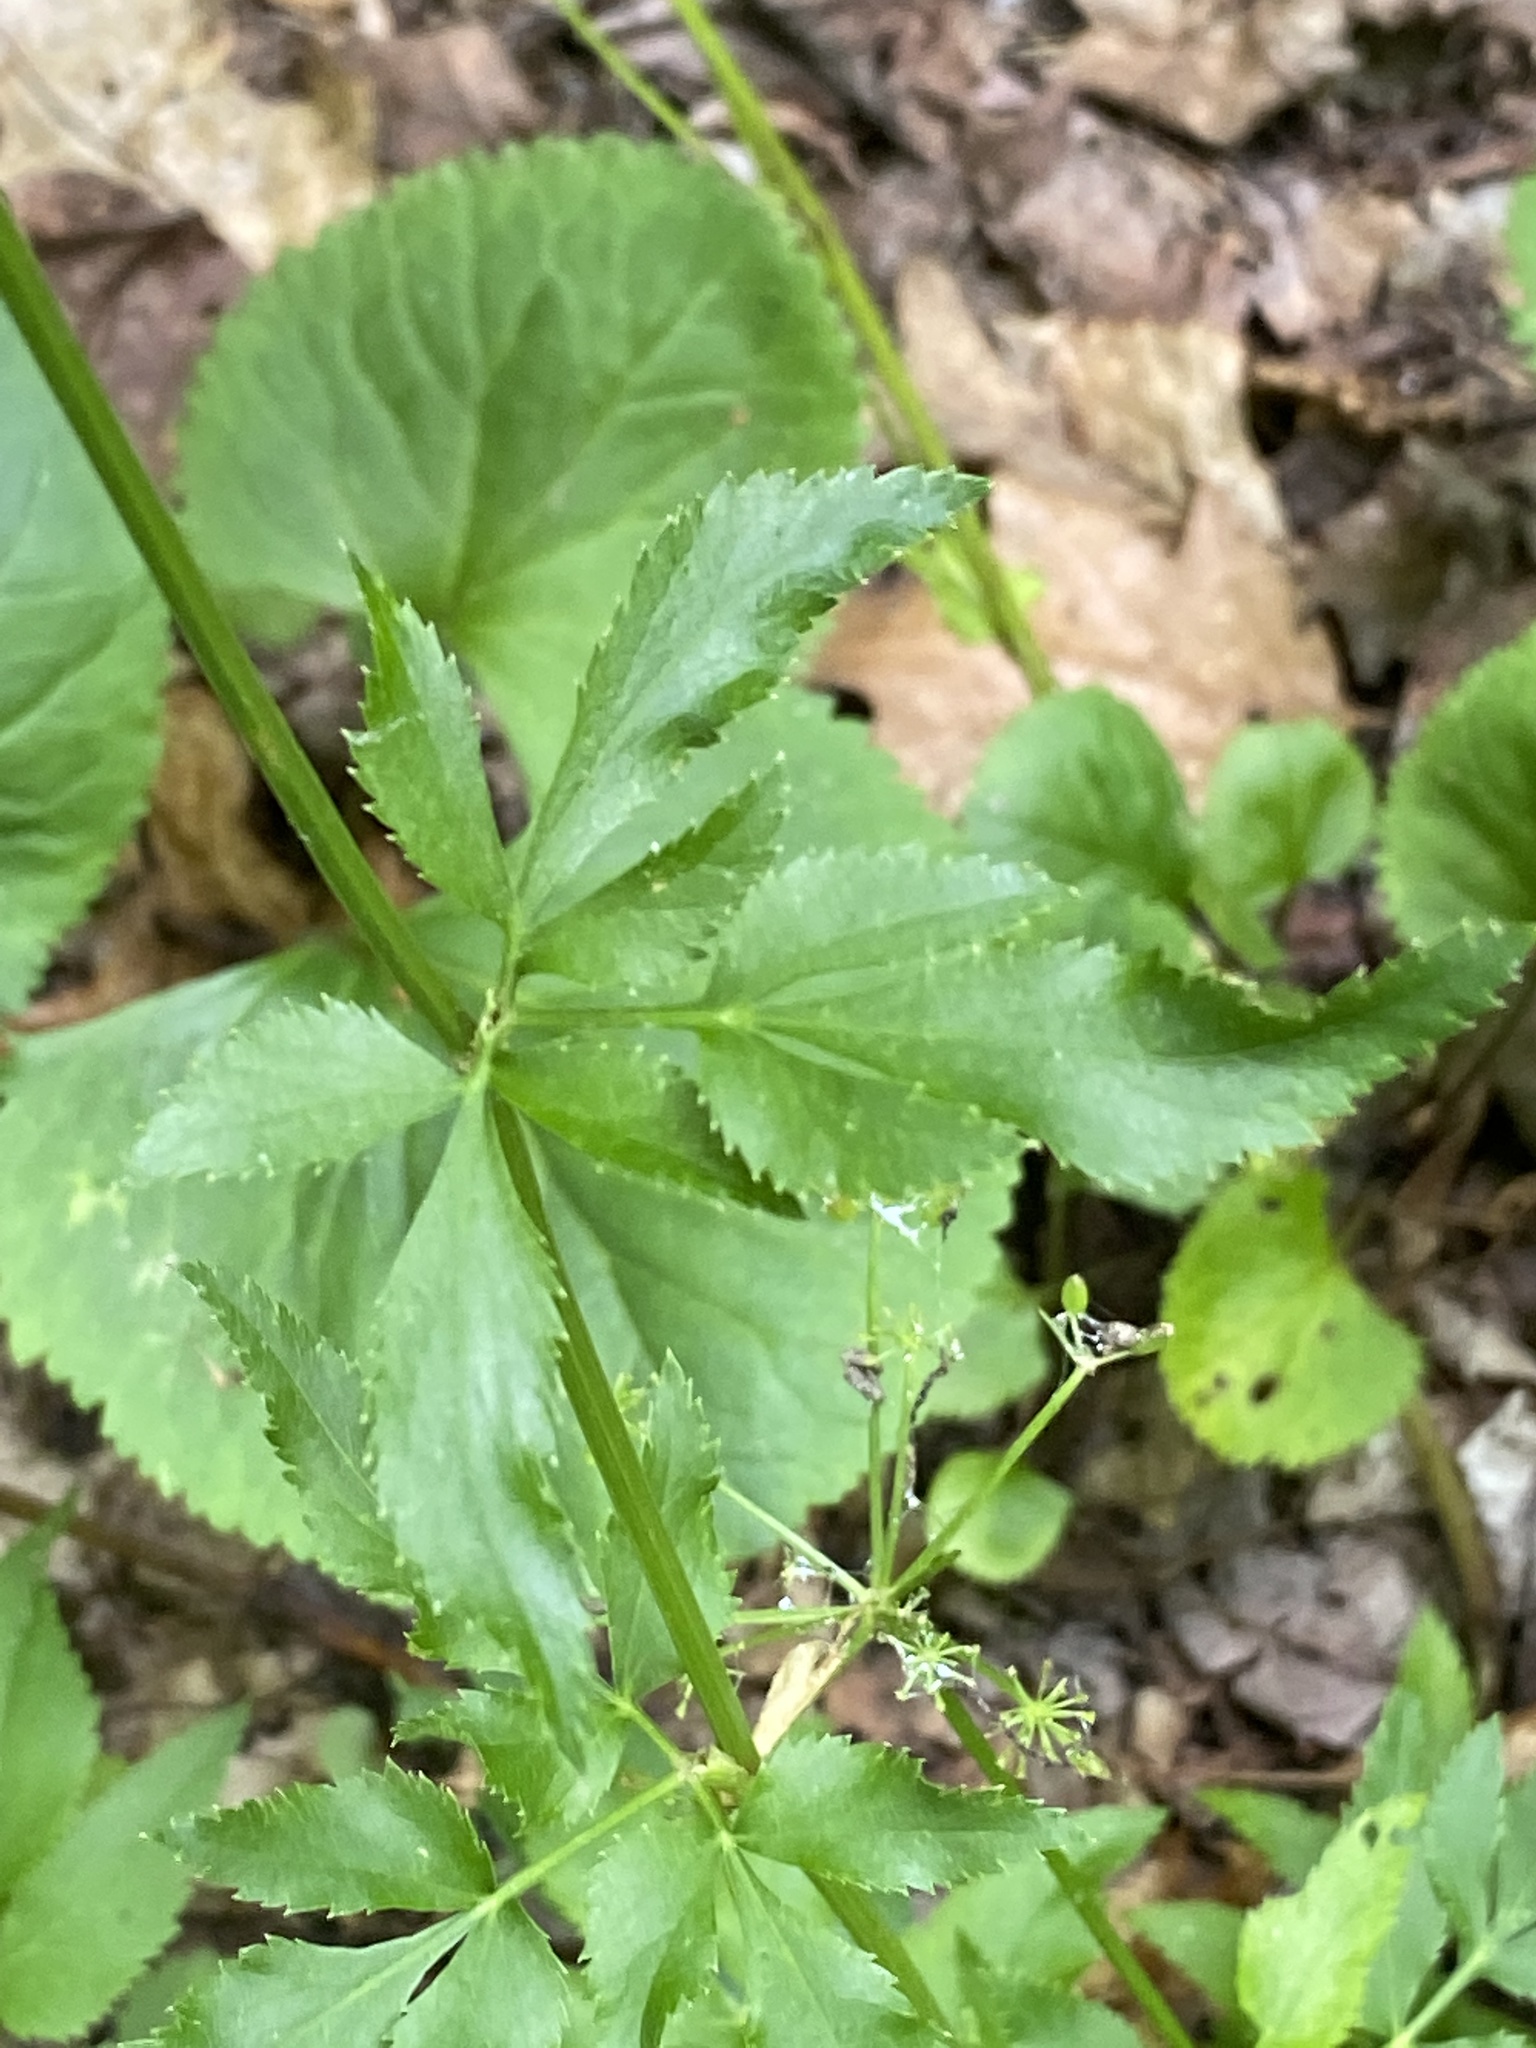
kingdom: Plantae
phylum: Tracheophyta
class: Magnoliopsida
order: Apiales
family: Apiaceae
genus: Zizia
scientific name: Zizia aptera
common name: Heart-leaved alexanders
